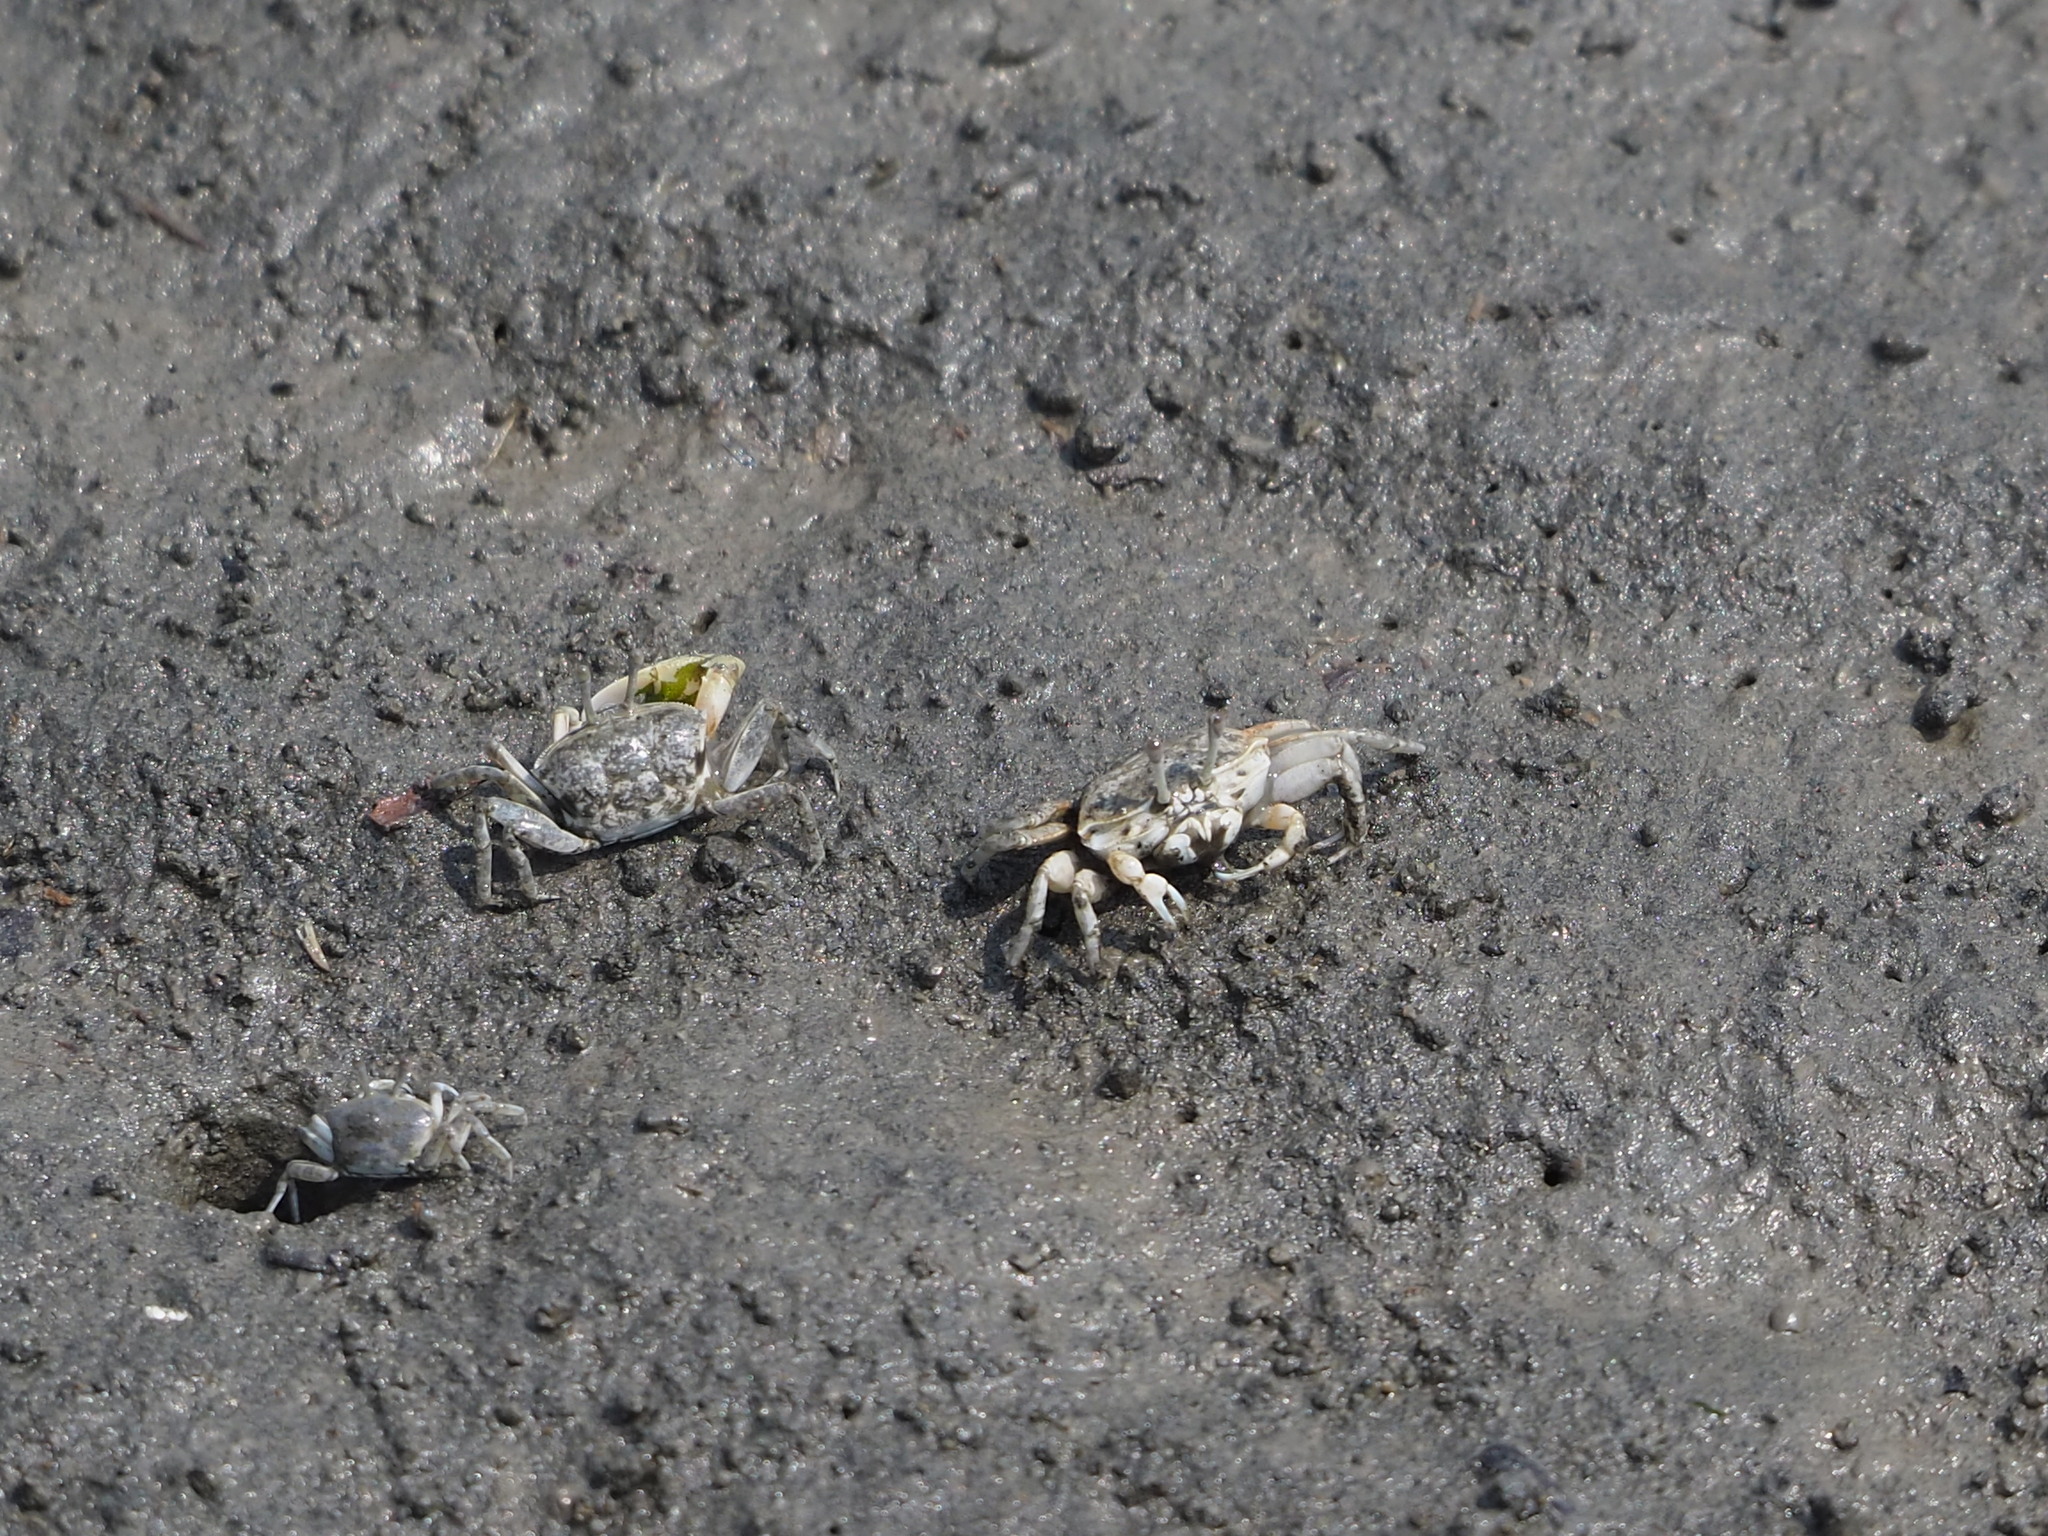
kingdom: Animalia
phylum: Arthropoda
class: Malacostraca
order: Decapoda
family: Ocypodidae
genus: Gelasimus
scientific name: Gelasimus borealis
